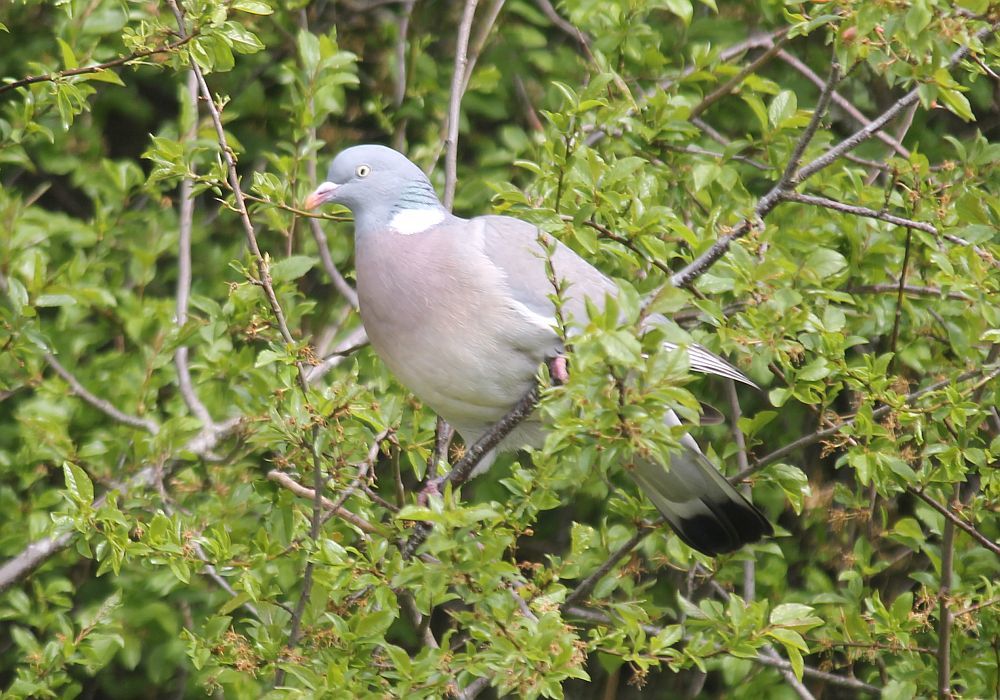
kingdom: Animalia
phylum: Chordata
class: Aves
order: Columbiformes
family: Columbidae
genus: Columba
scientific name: Columba palumbus
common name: Common wood pigeon
